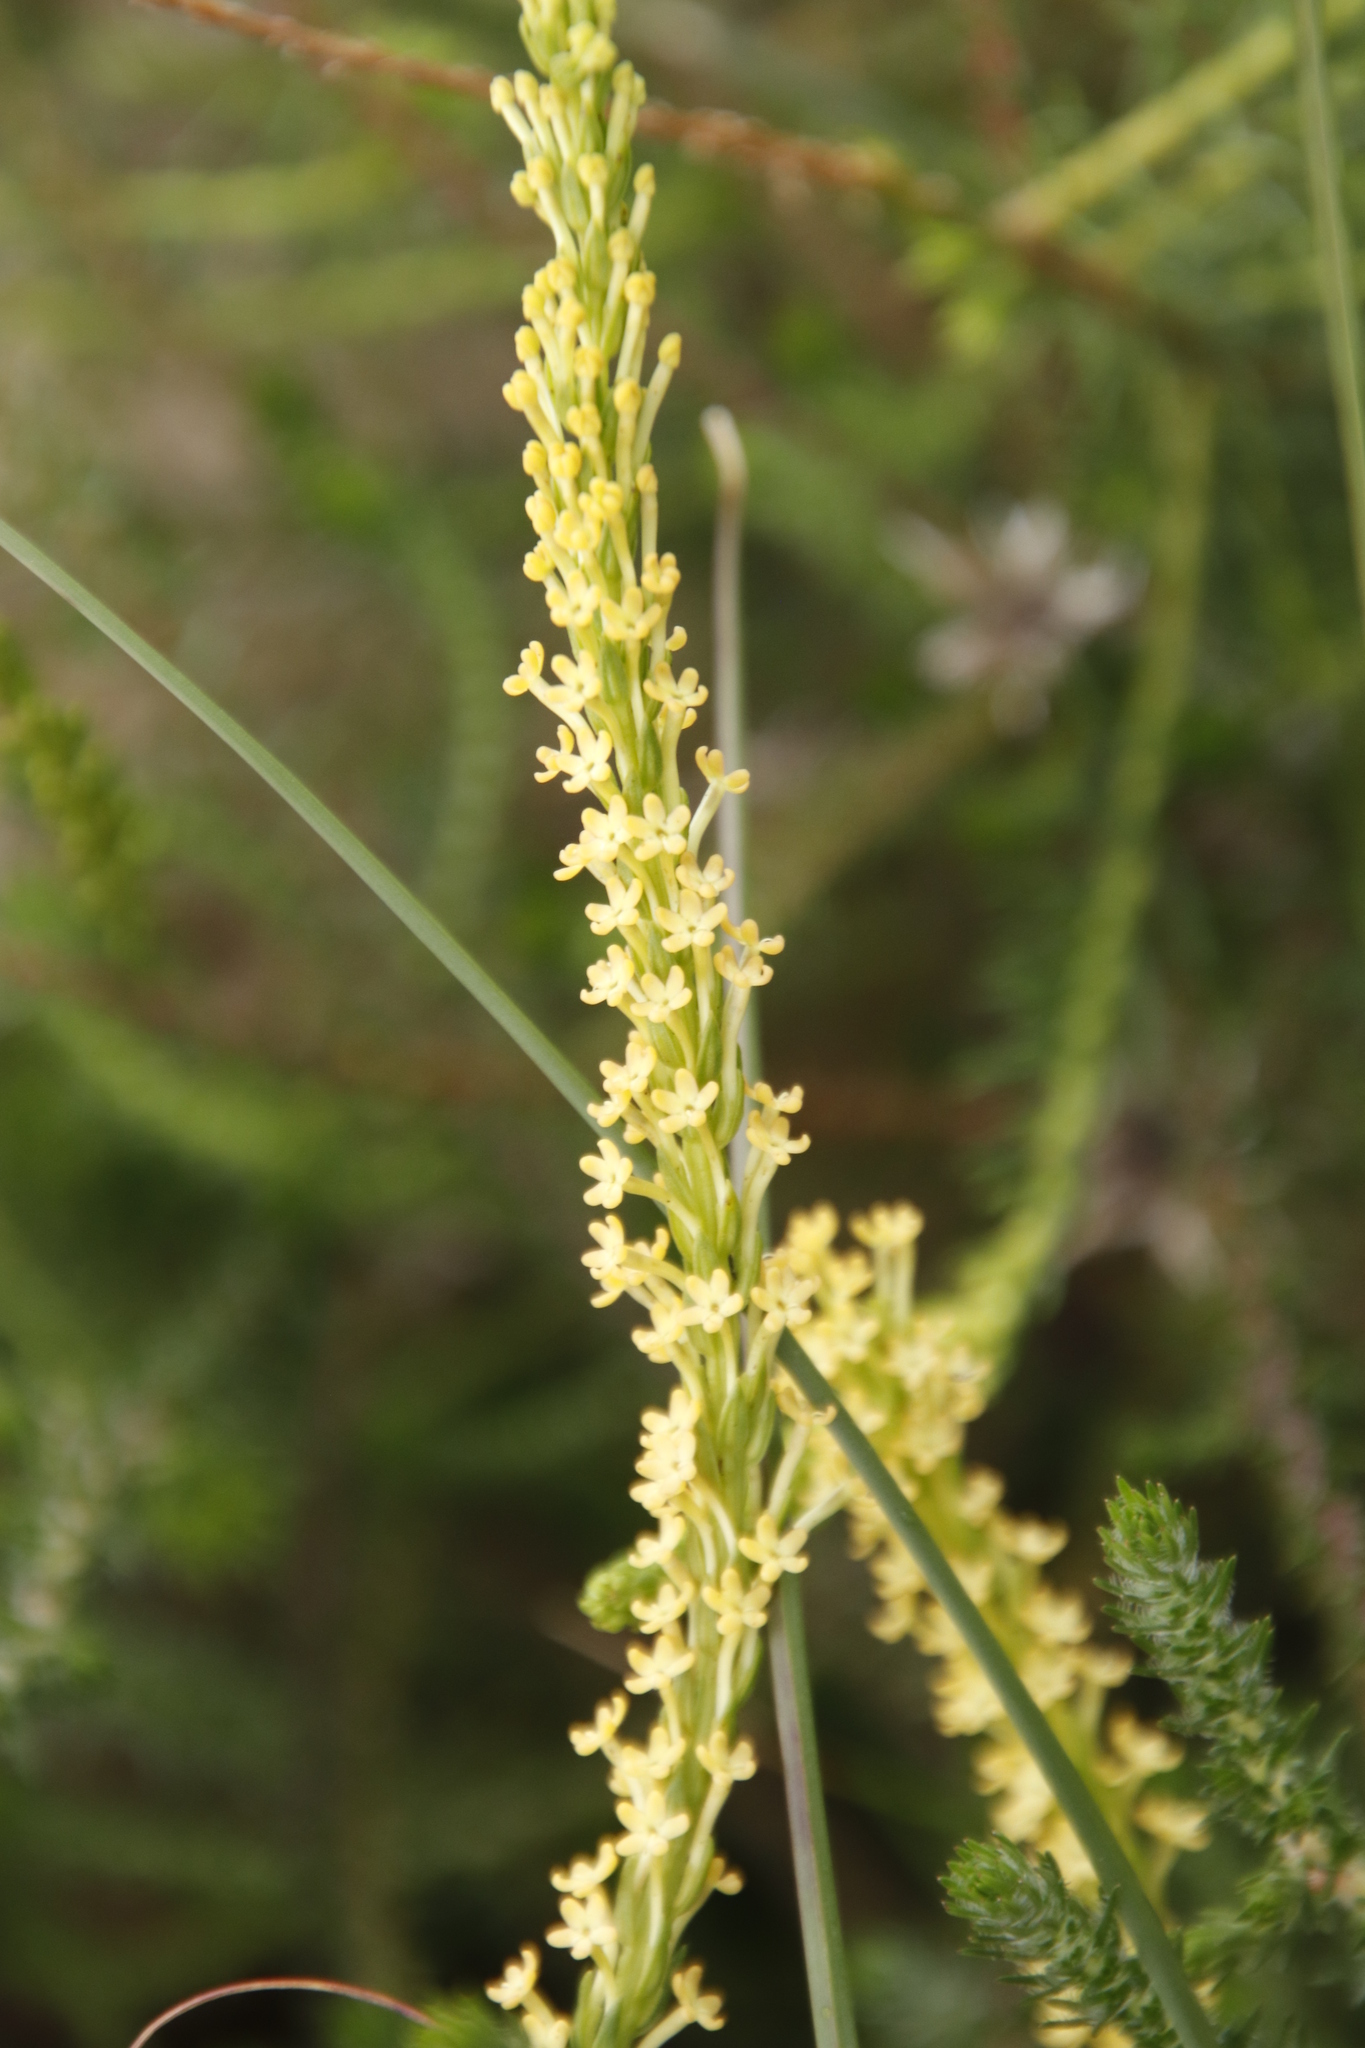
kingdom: Plantae
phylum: Tracheophyta
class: Magnoliopsida
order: Lamiales
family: Scrophulariaceae
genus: Microdon
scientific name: Microdon dubius
